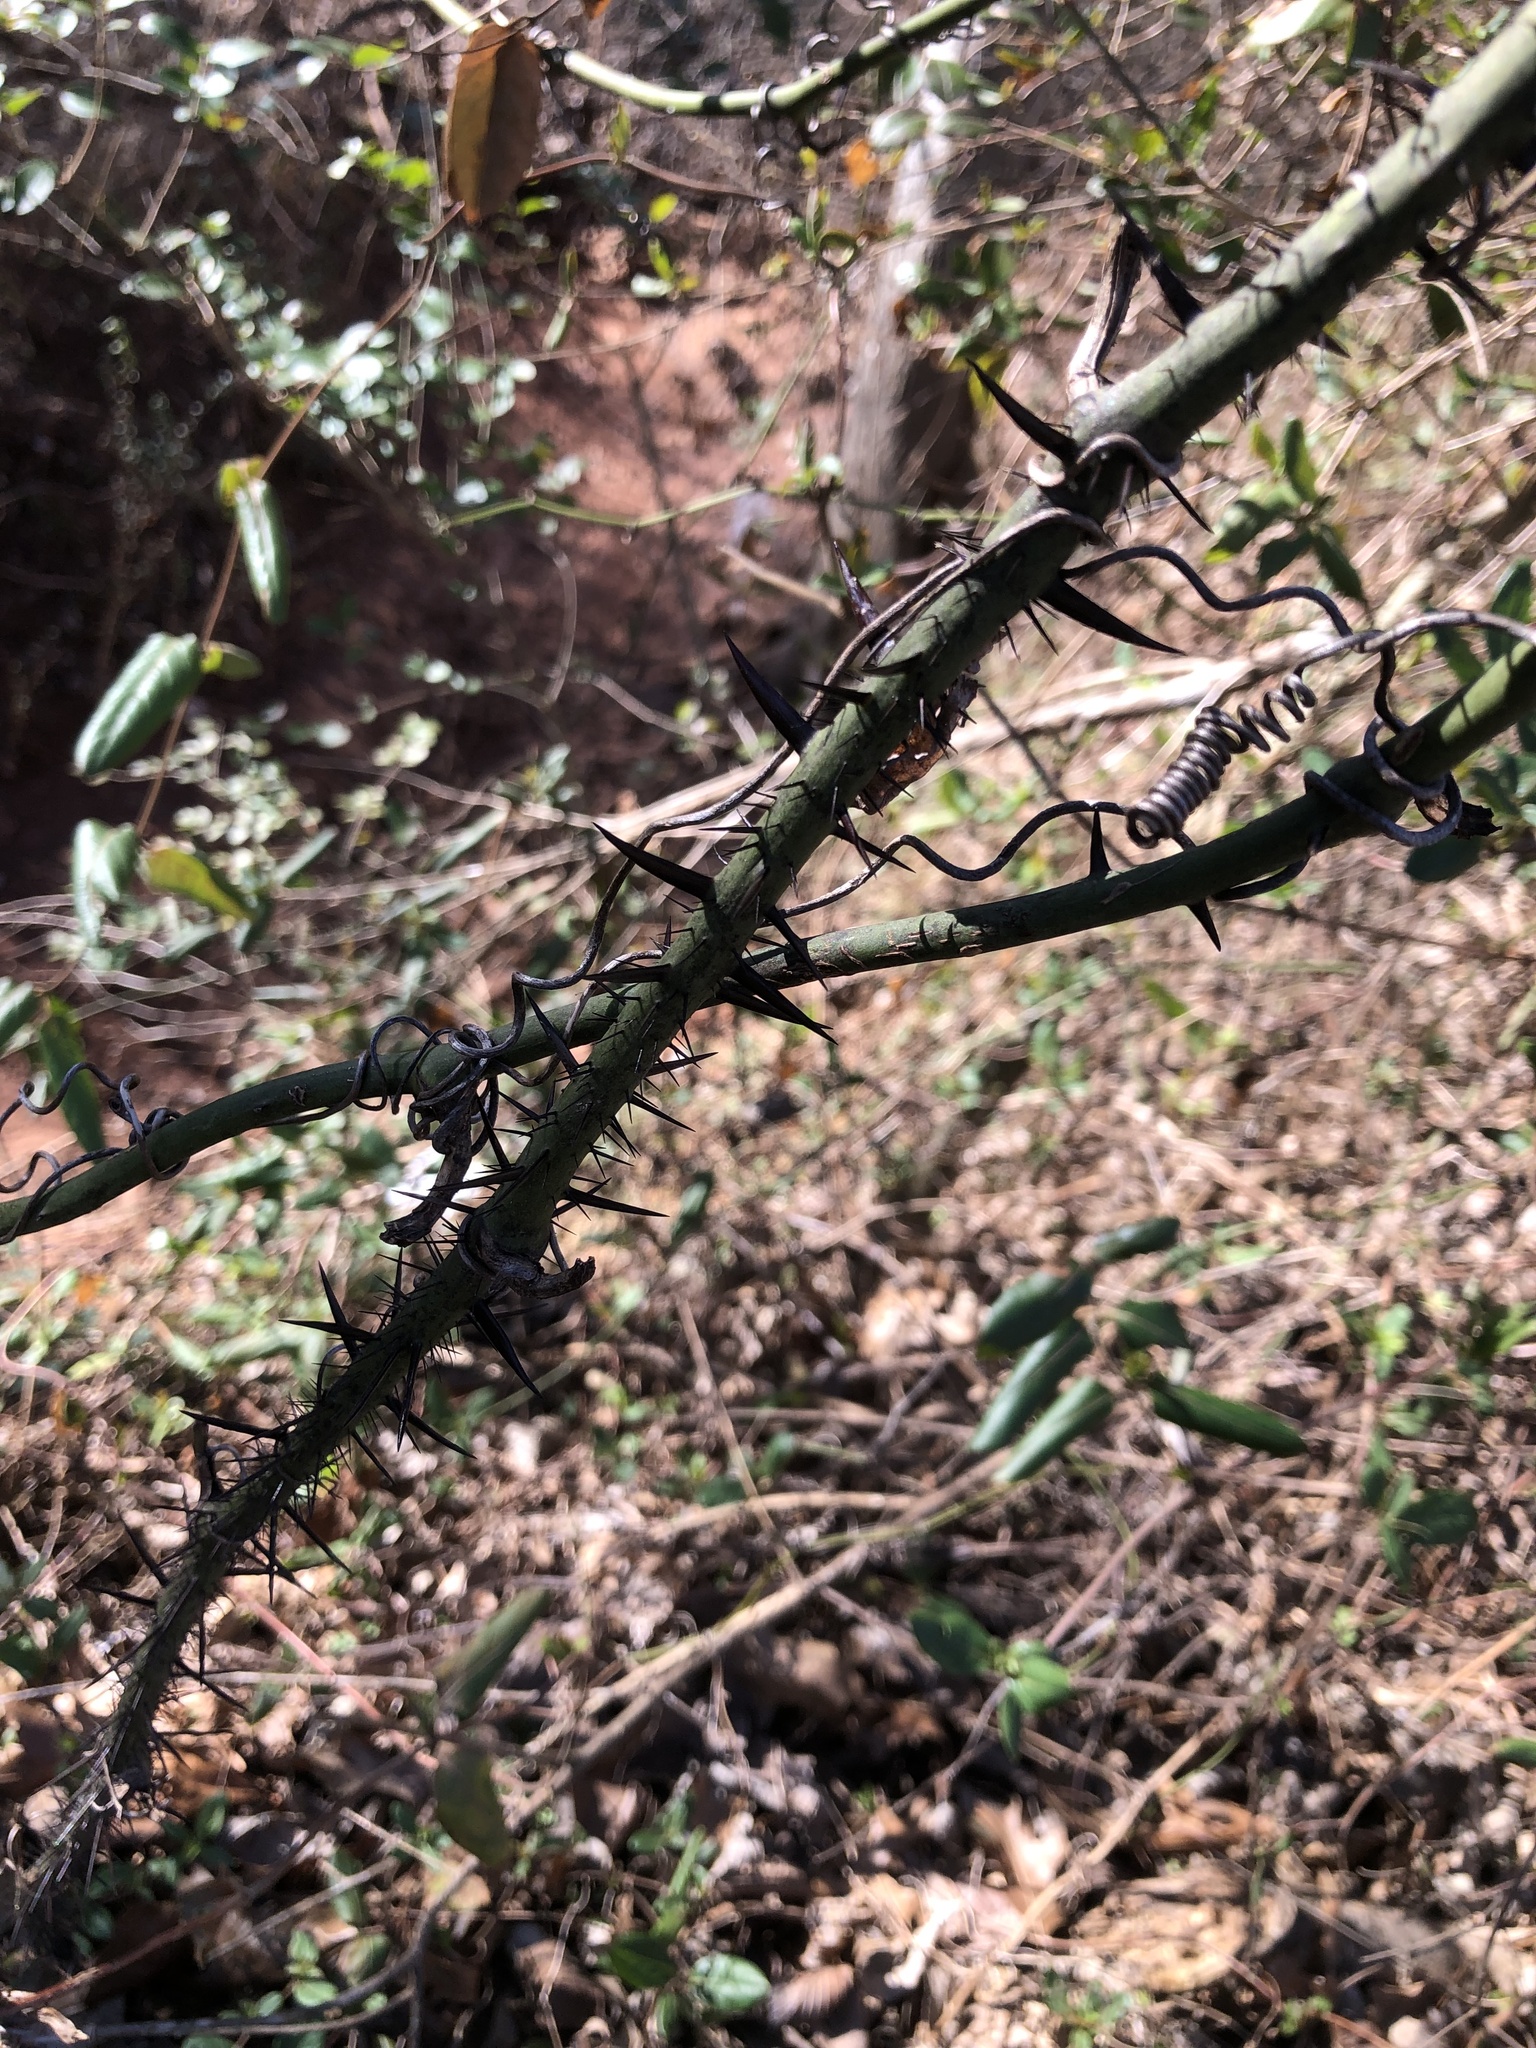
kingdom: Plantae
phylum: Tracheophyta
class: Liliopsida
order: Liliales
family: Smilacaceae
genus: Smilax
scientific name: Smilax tamnoides
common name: Hellfetter
